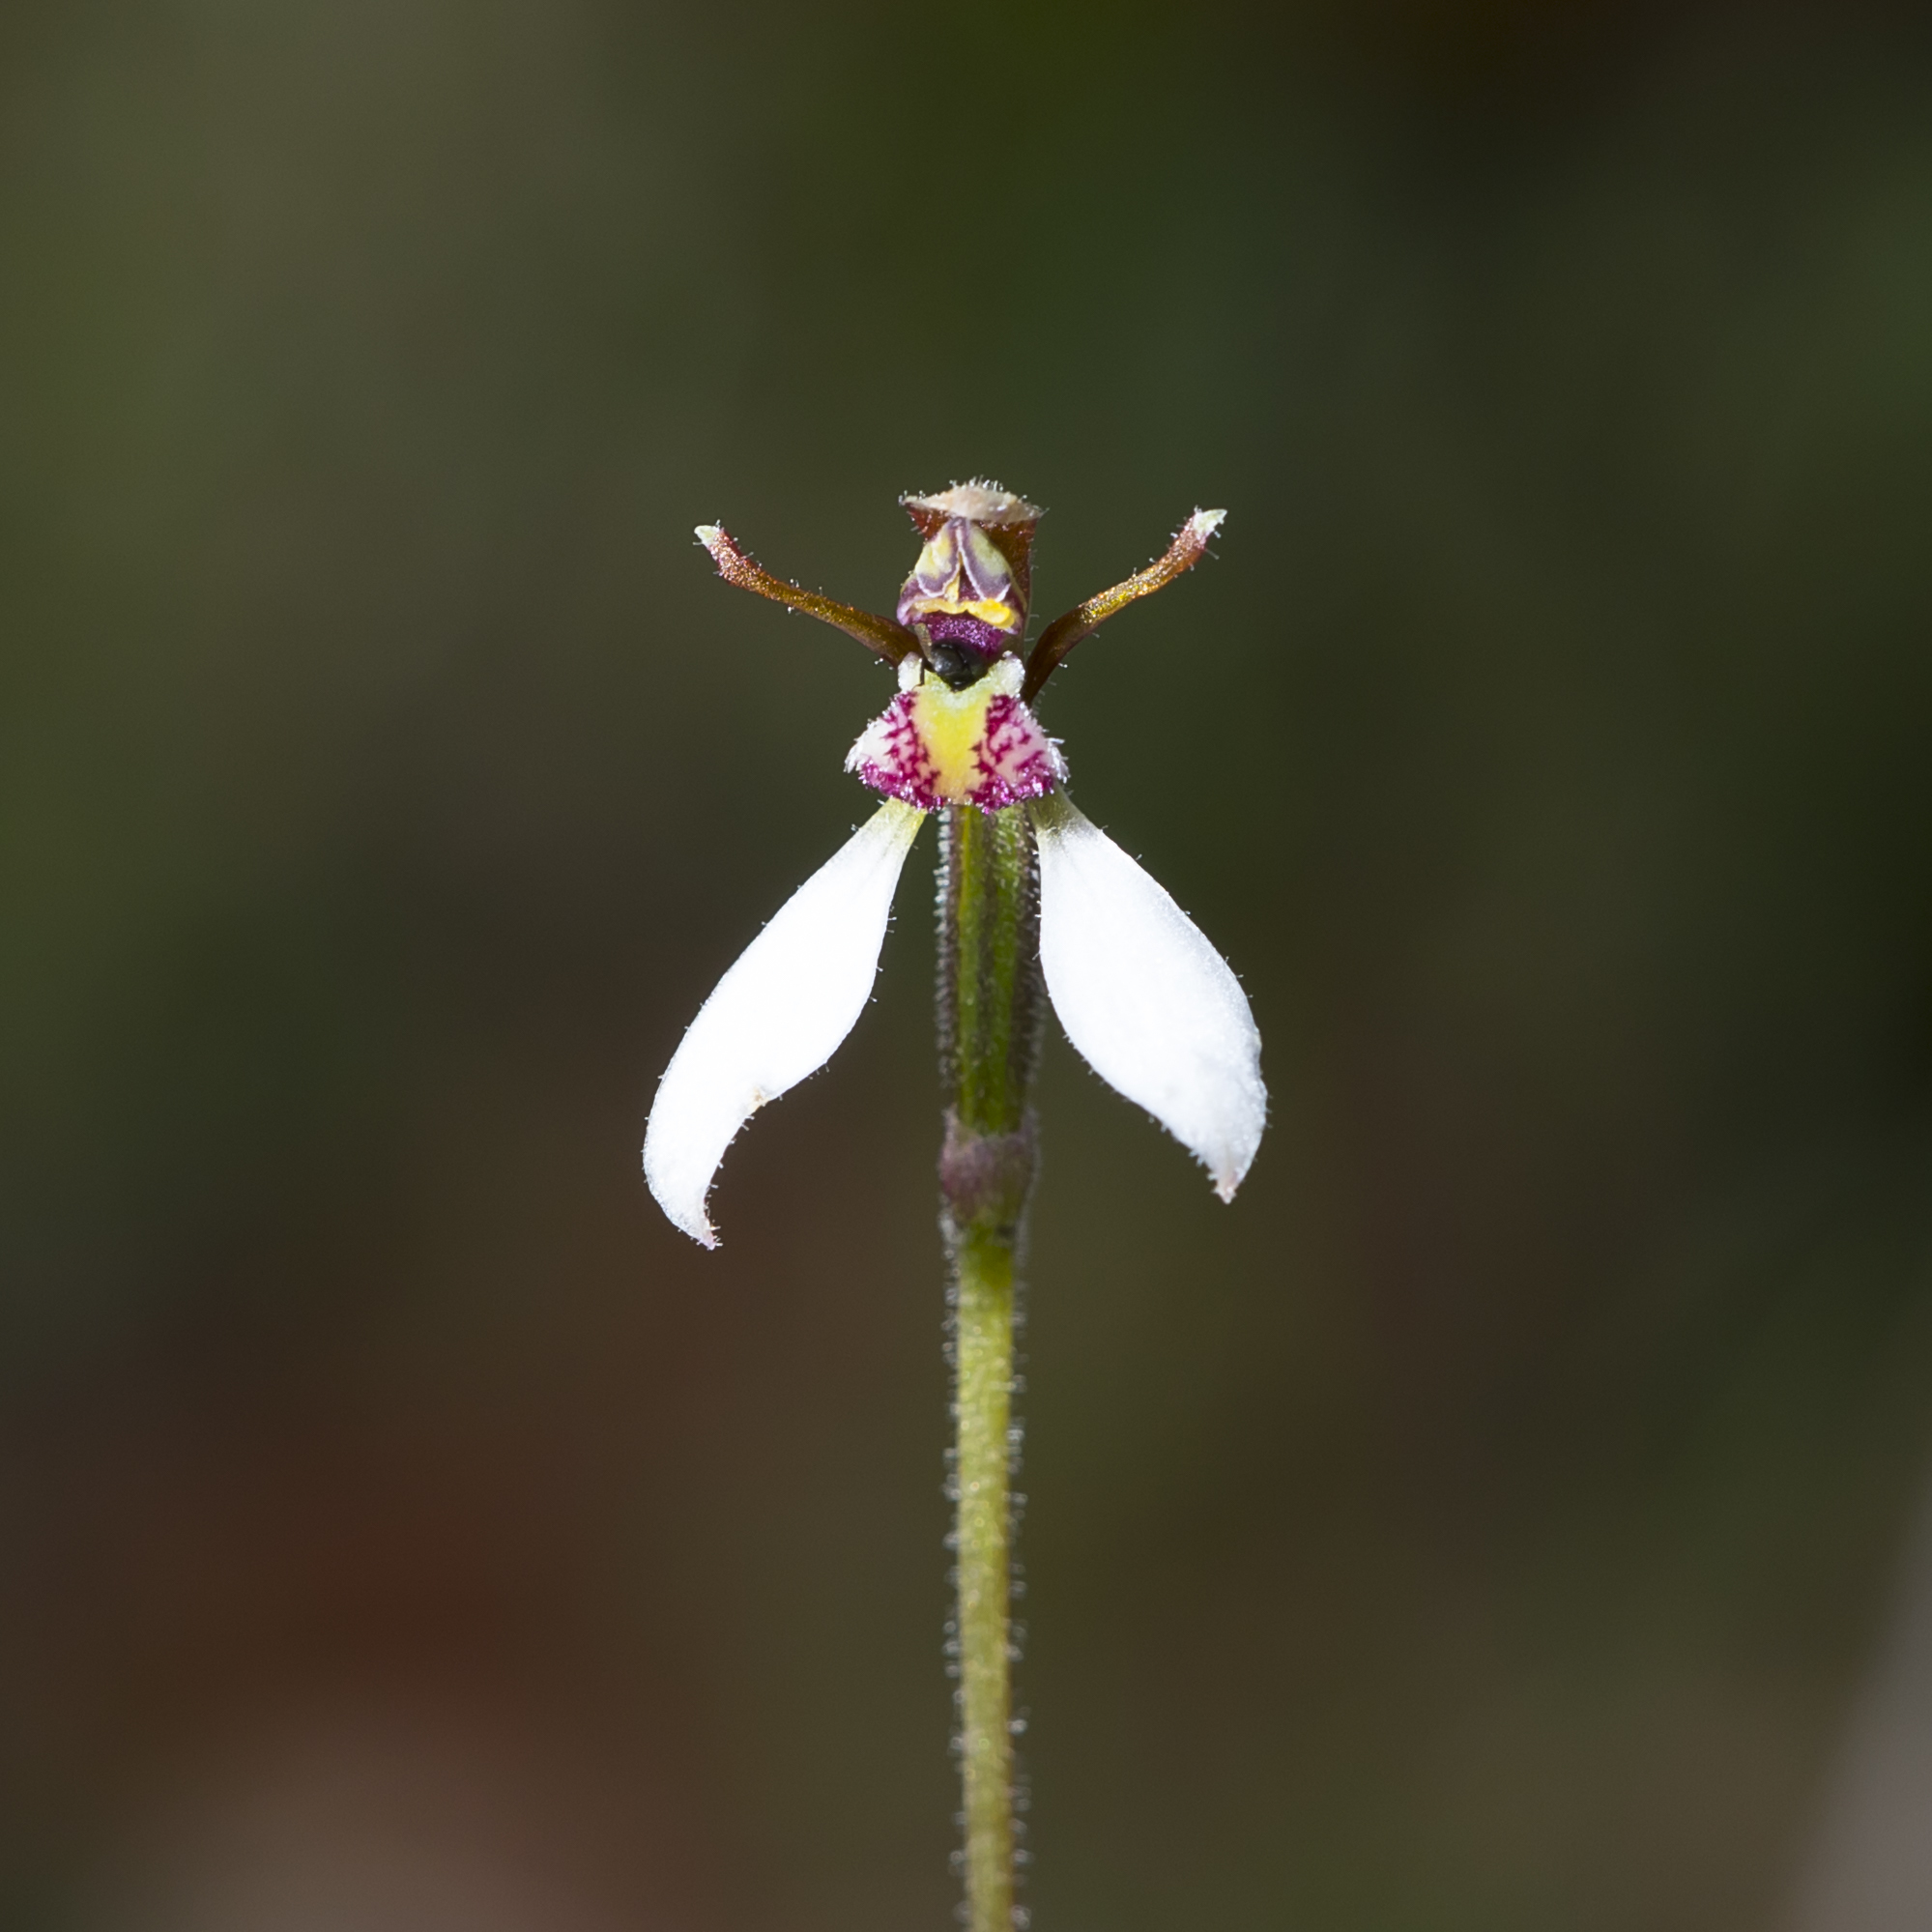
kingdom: Plantae
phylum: Tracheophyta
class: Liliopsida
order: Asparagales
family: Orchidaceae
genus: Eriochilus
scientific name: Eriochilus collinus
